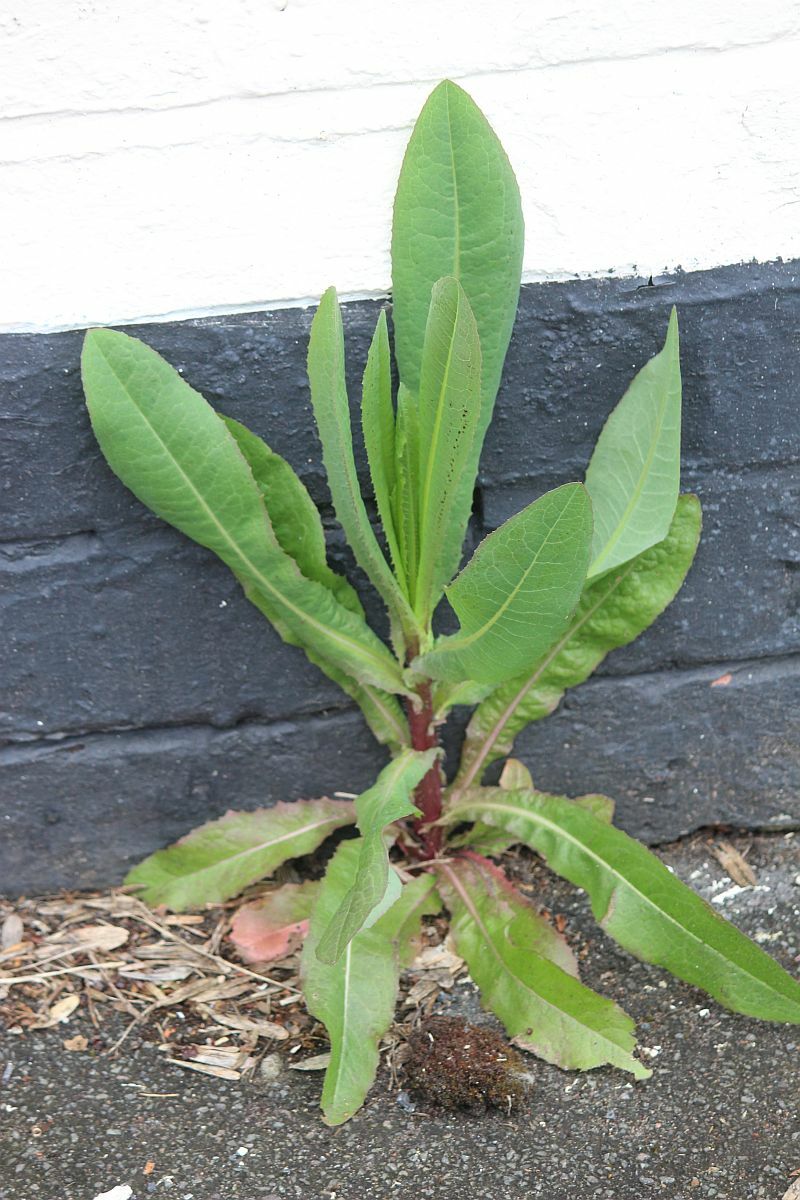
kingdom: Plantae
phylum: Tracheophyta
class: Magnoliopsida
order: Asterales
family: Asteraceae
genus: Lactuca
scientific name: Lactuca serriola
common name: Prickly lettuce
